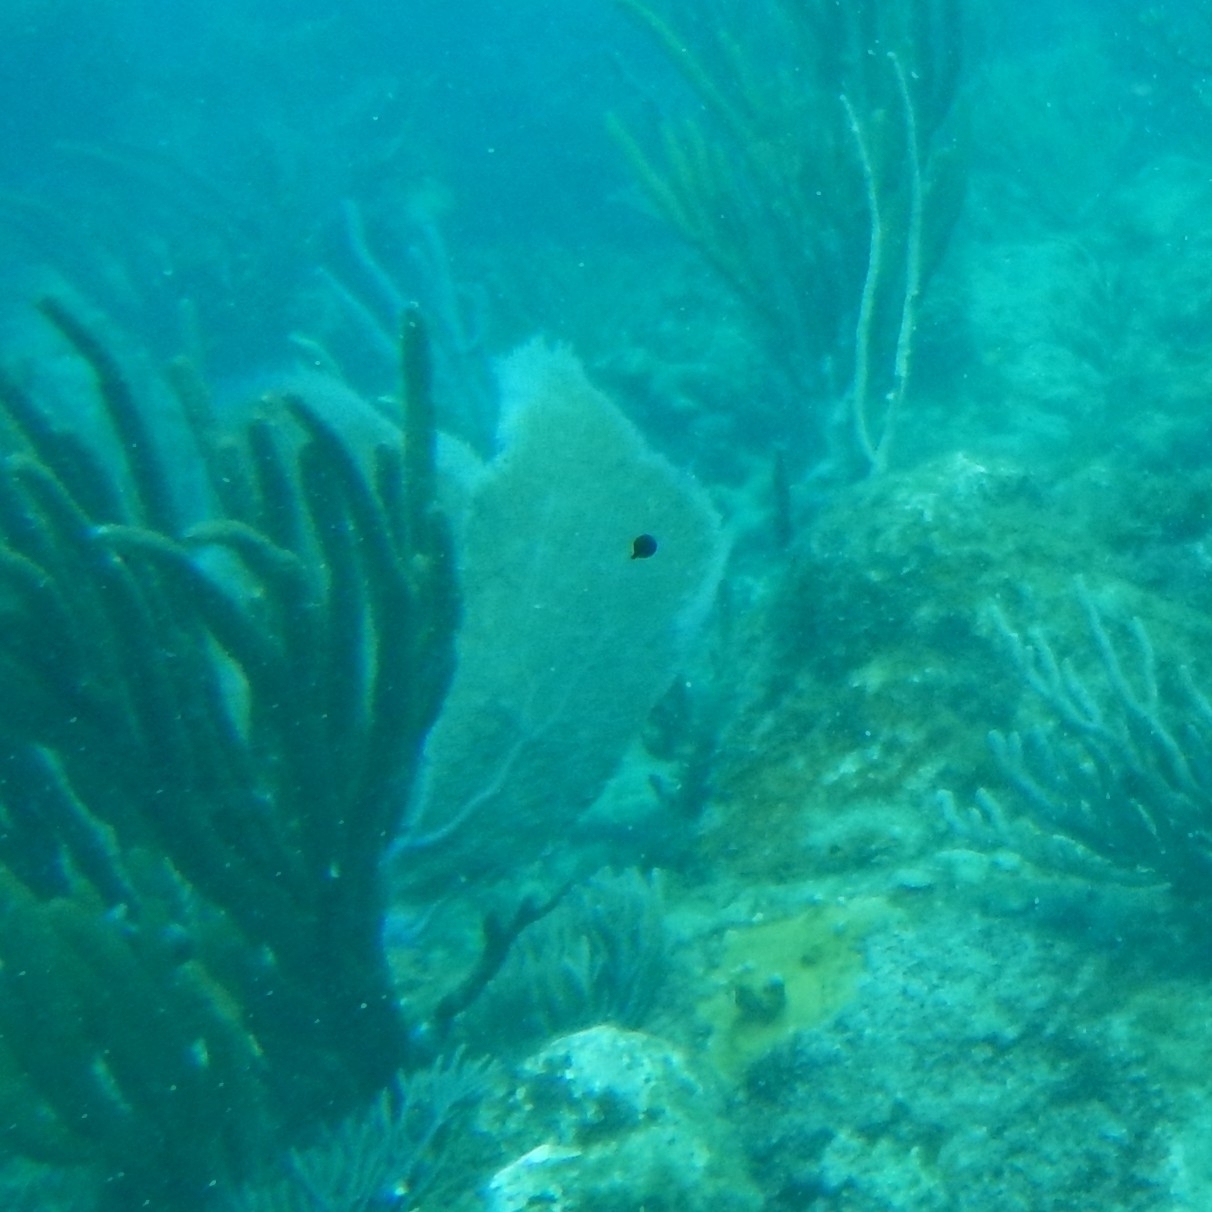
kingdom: Animalia
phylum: Cnidaria
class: Anthozoa
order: Malacalcyonacea
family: Gorgoniidae
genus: Gorgonia
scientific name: Gorgonia ventalina
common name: Common sea fan
